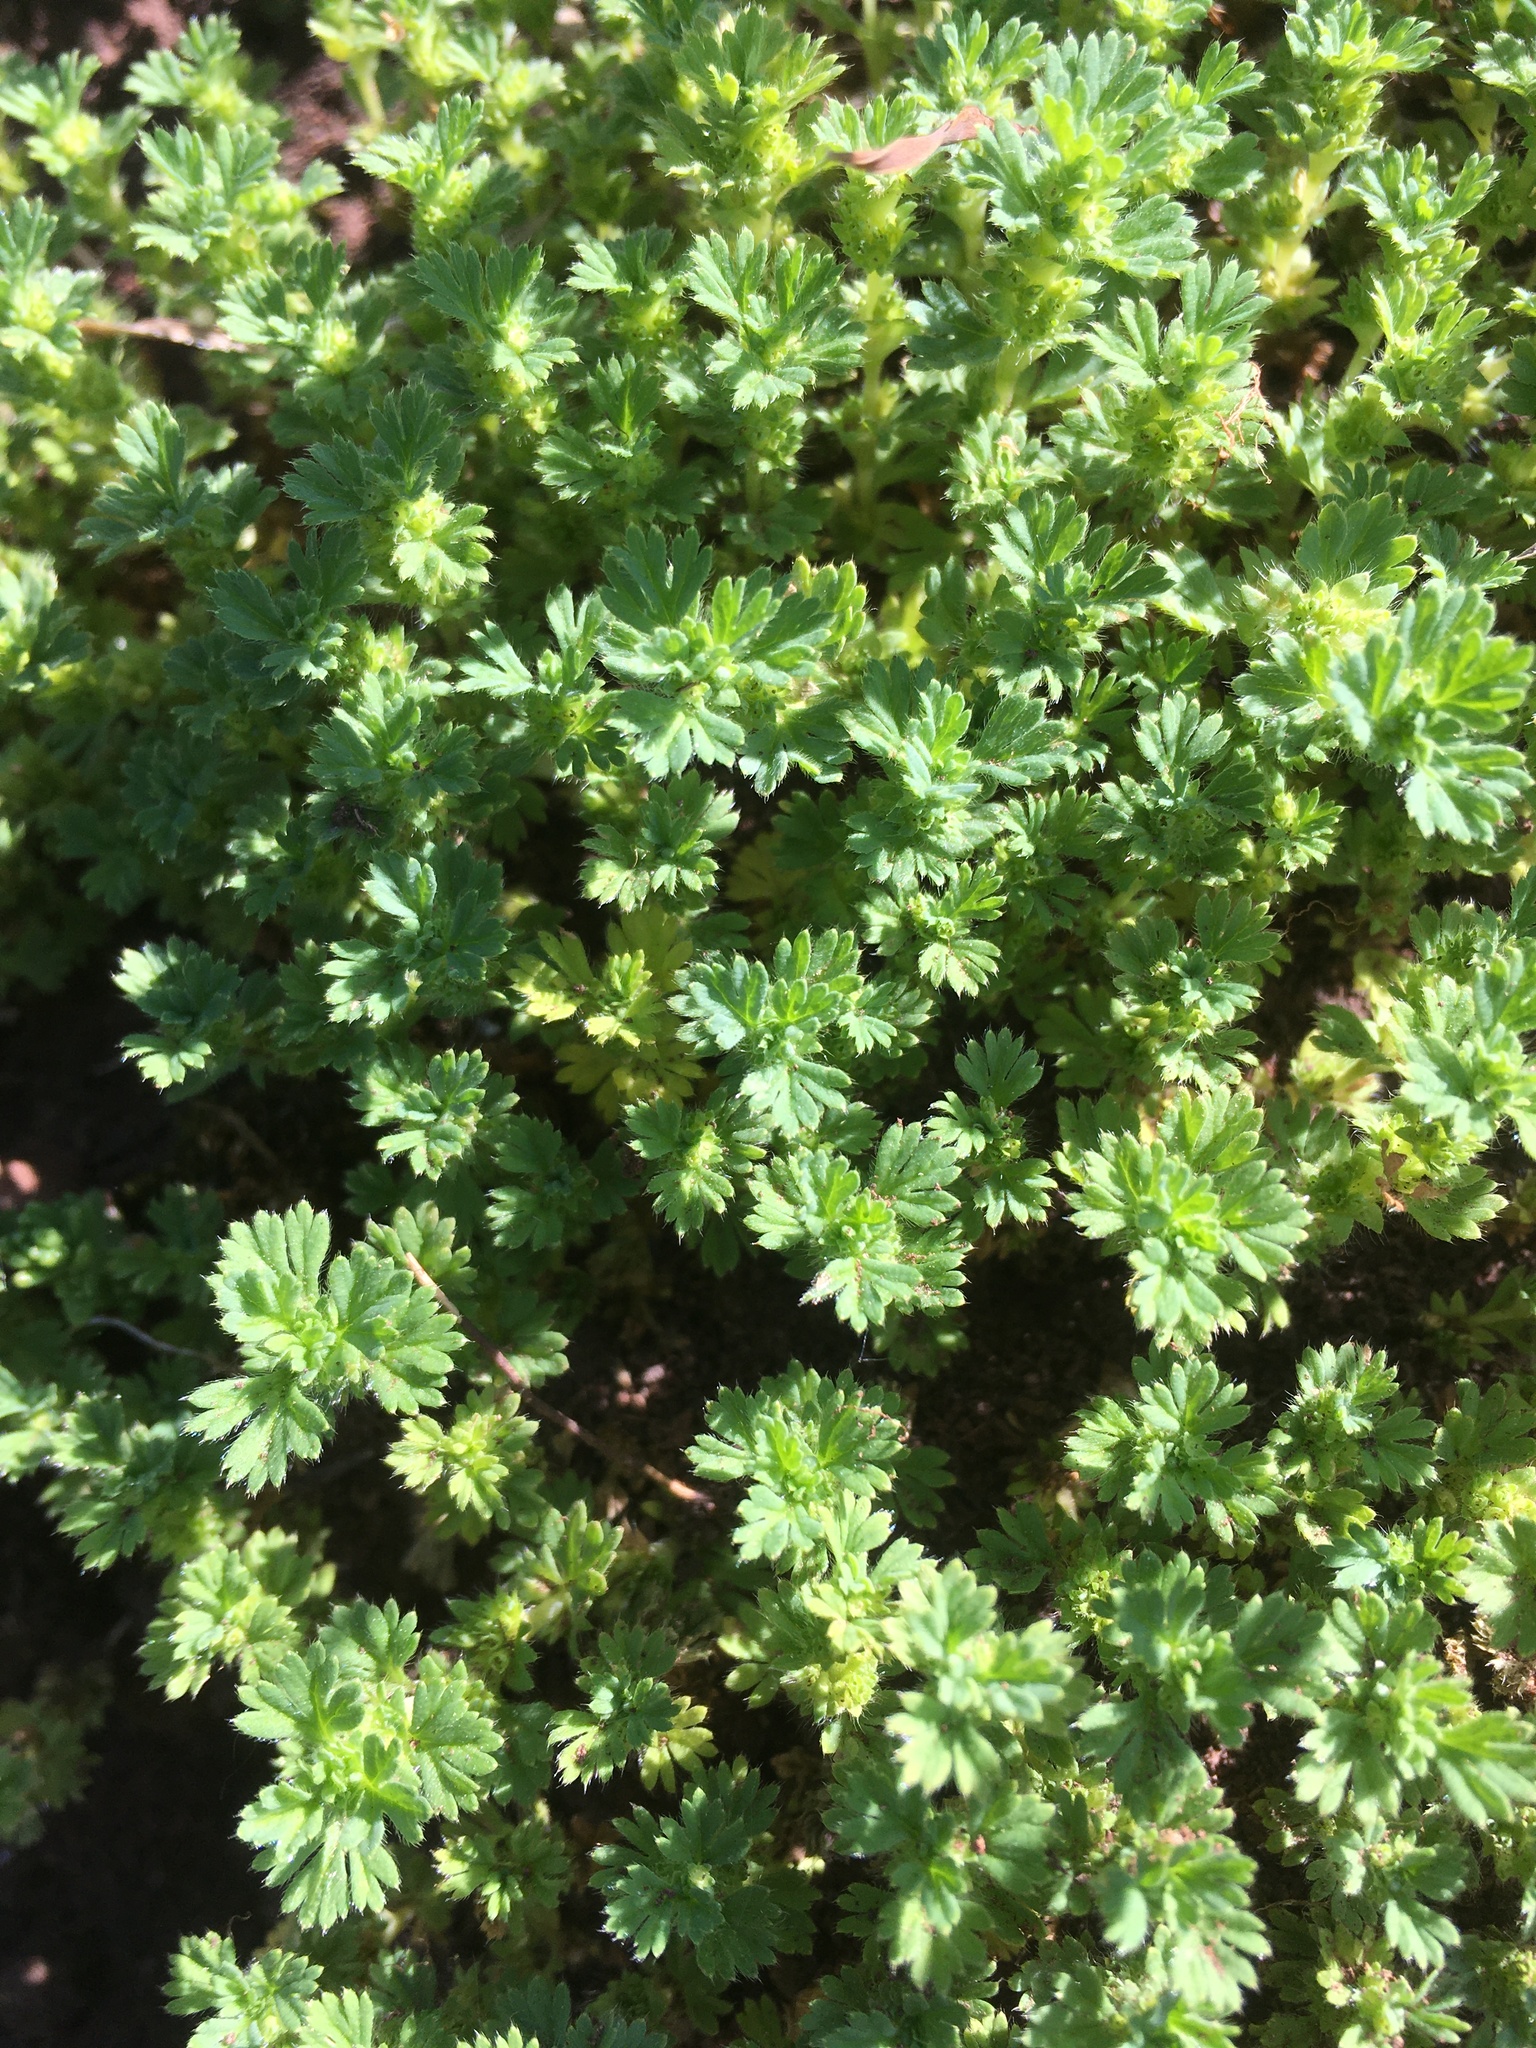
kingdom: Plantae
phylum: Tracheophyta
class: Magnoliopsida
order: Rosales
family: Rosaceae
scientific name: Rosaceae
